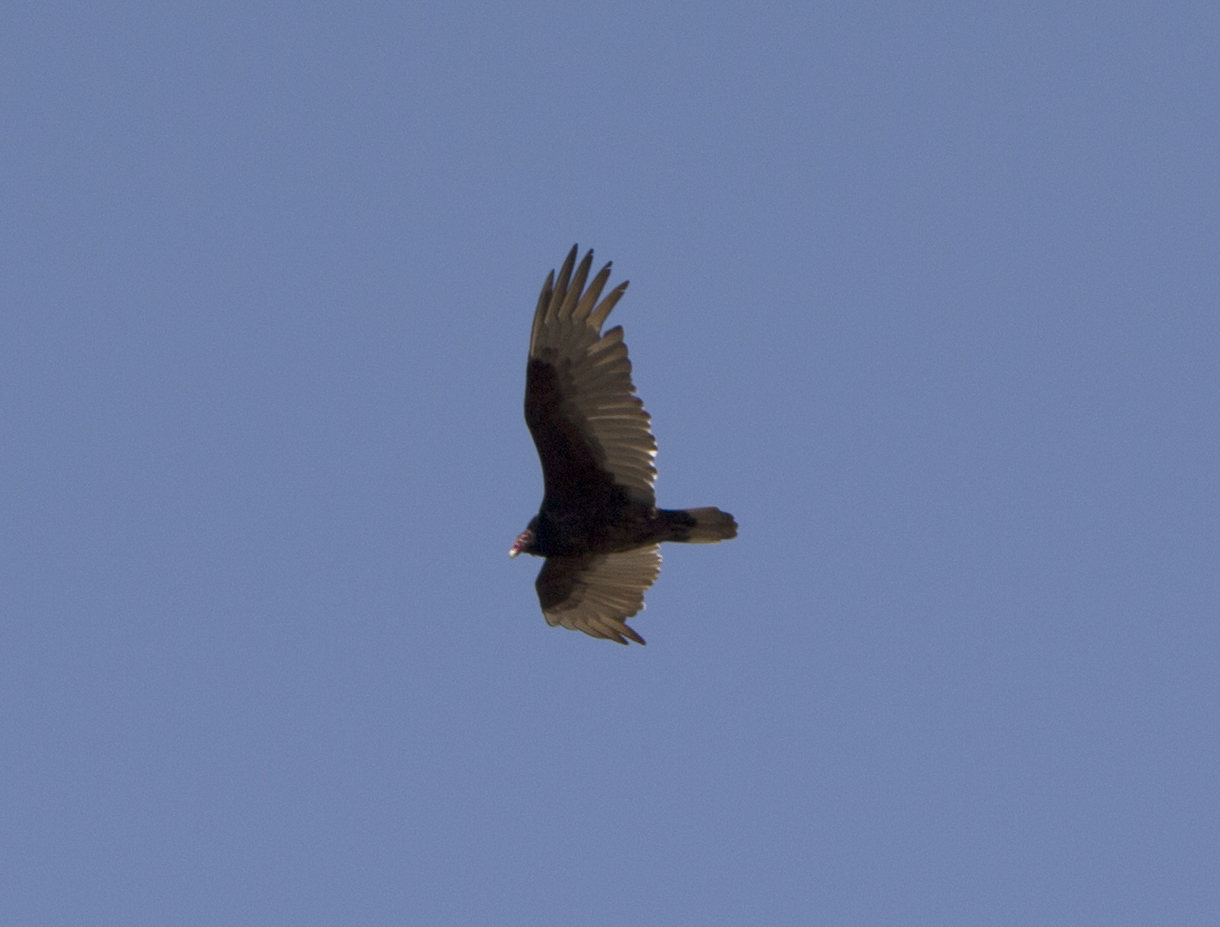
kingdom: Animalia
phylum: Chordata
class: Aves
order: Accipitriformes
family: Cathartidae
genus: Cathartes
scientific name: Cathartes aura
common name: Turkey vulture
